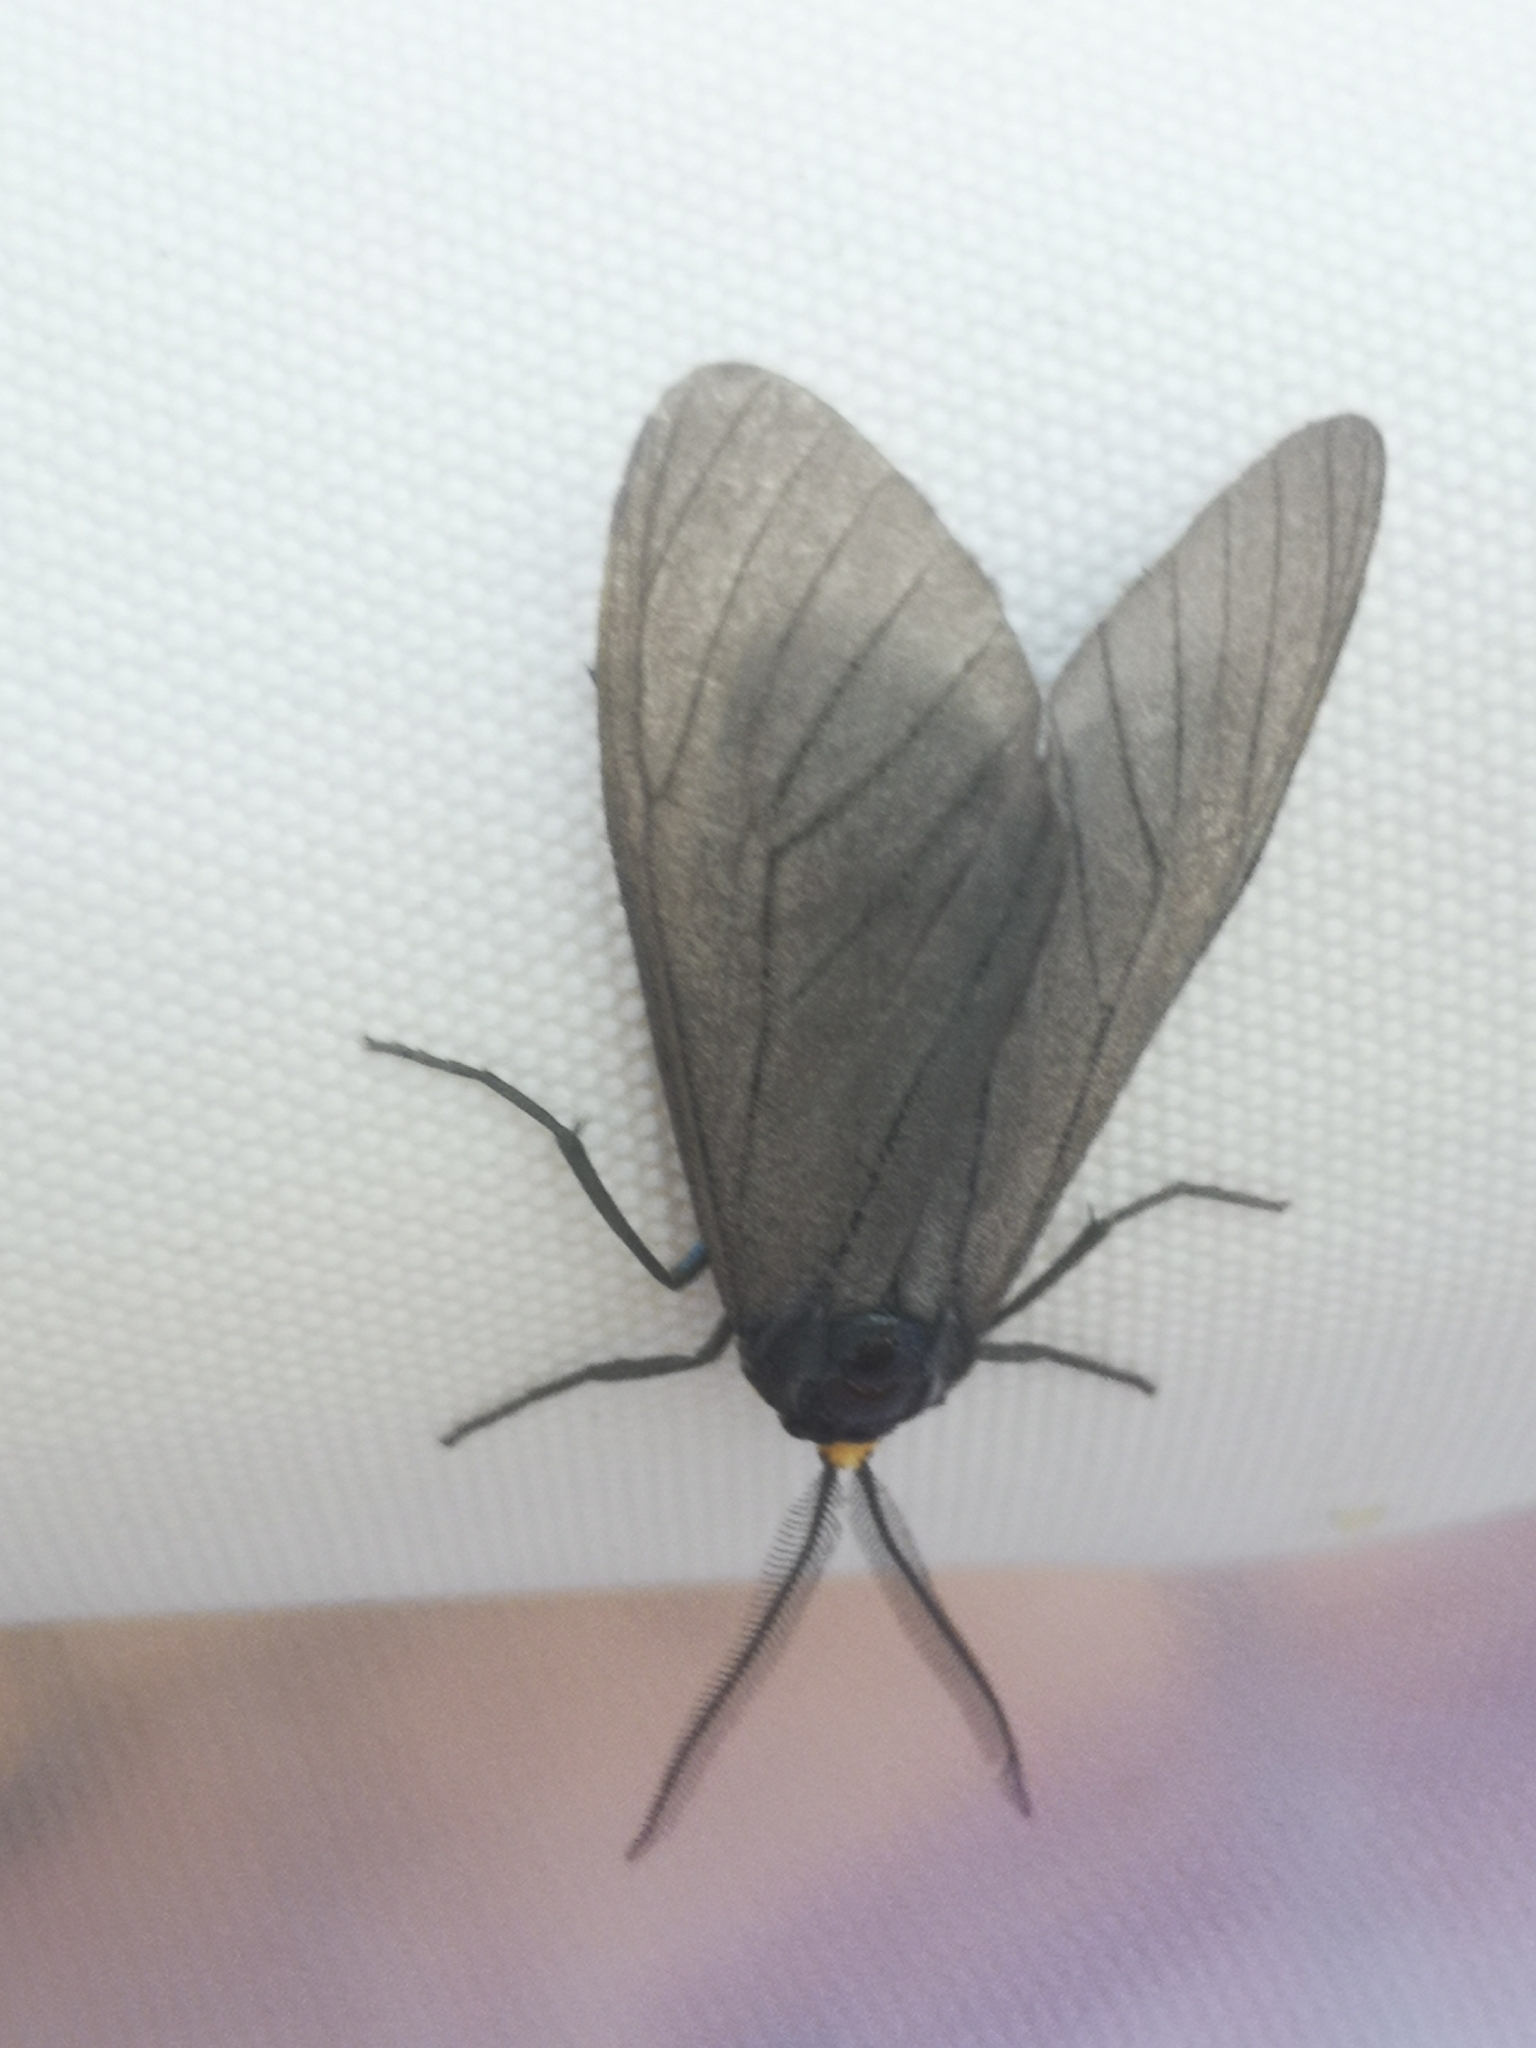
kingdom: Animalia
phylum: Arthropoda
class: Insecta
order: Lepidoptera
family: Erebidae
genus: Ctenucha
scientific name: Ctenucha virginica
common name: Virginia ctenucha moth
